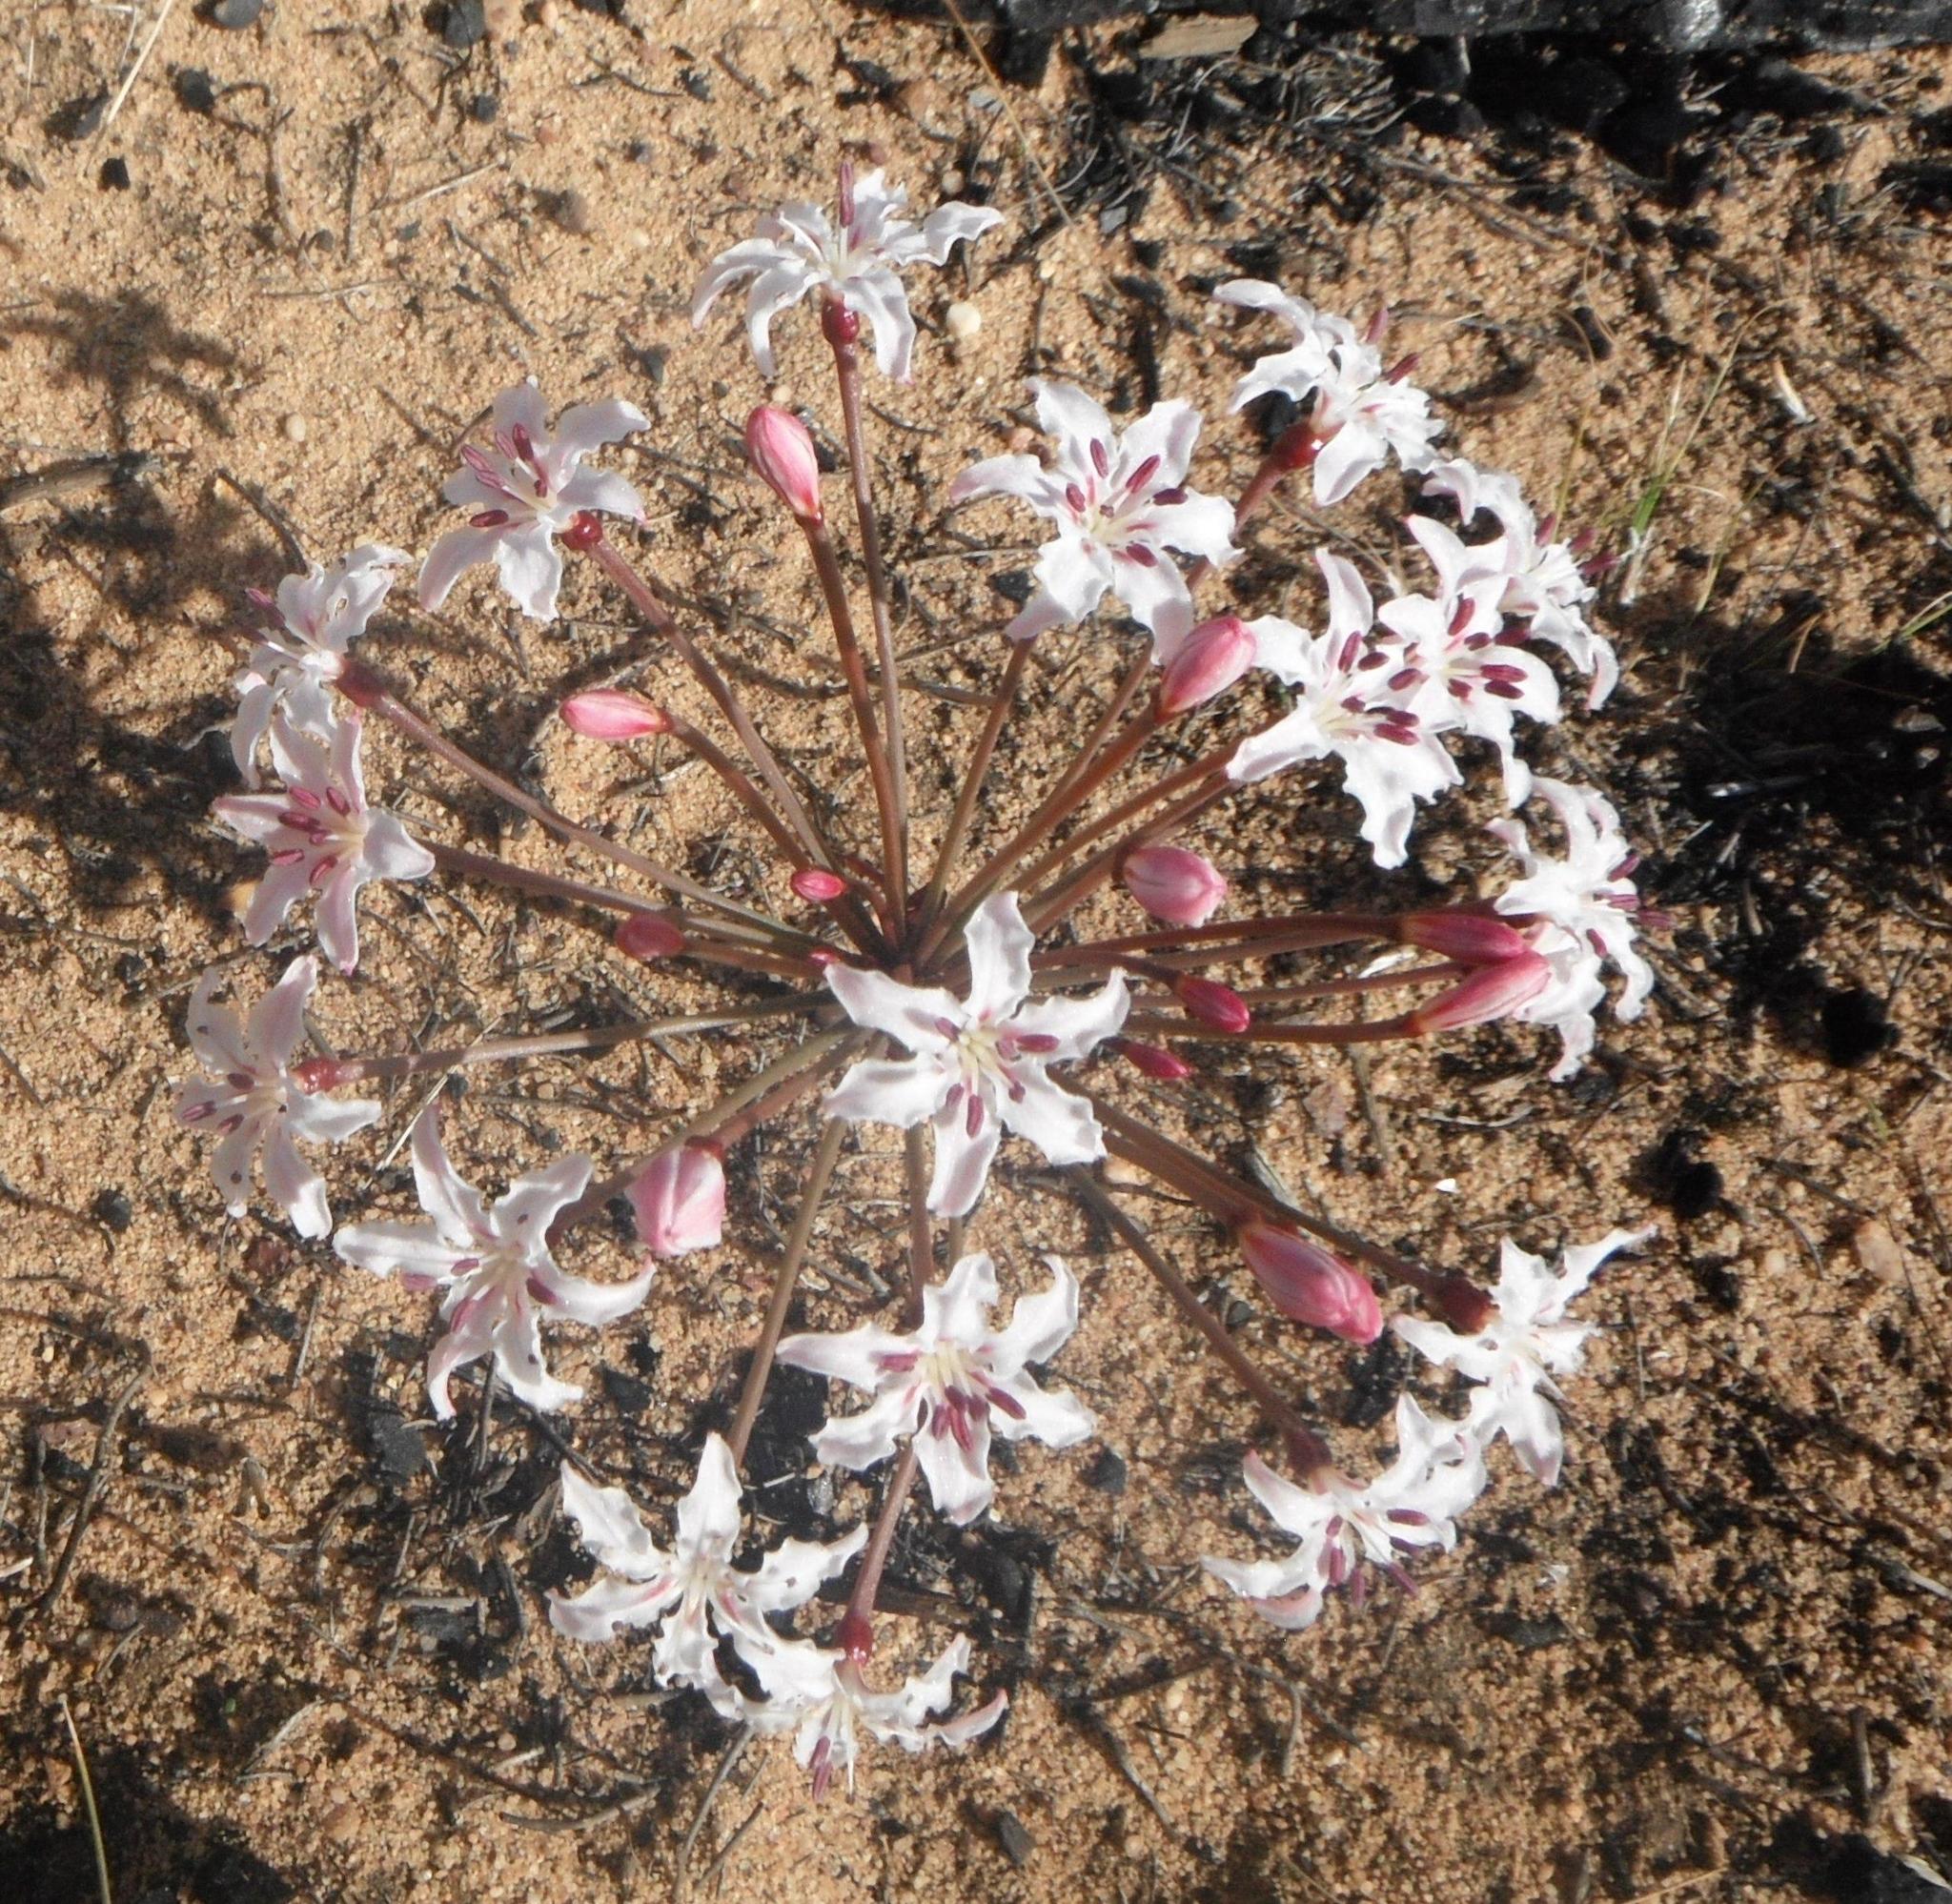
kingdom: Plantae
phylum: Tracheophyta
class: Liliopsida
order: Asparagales
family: Amaryllidaceae
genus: Hessea
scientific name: Hessea monticola
